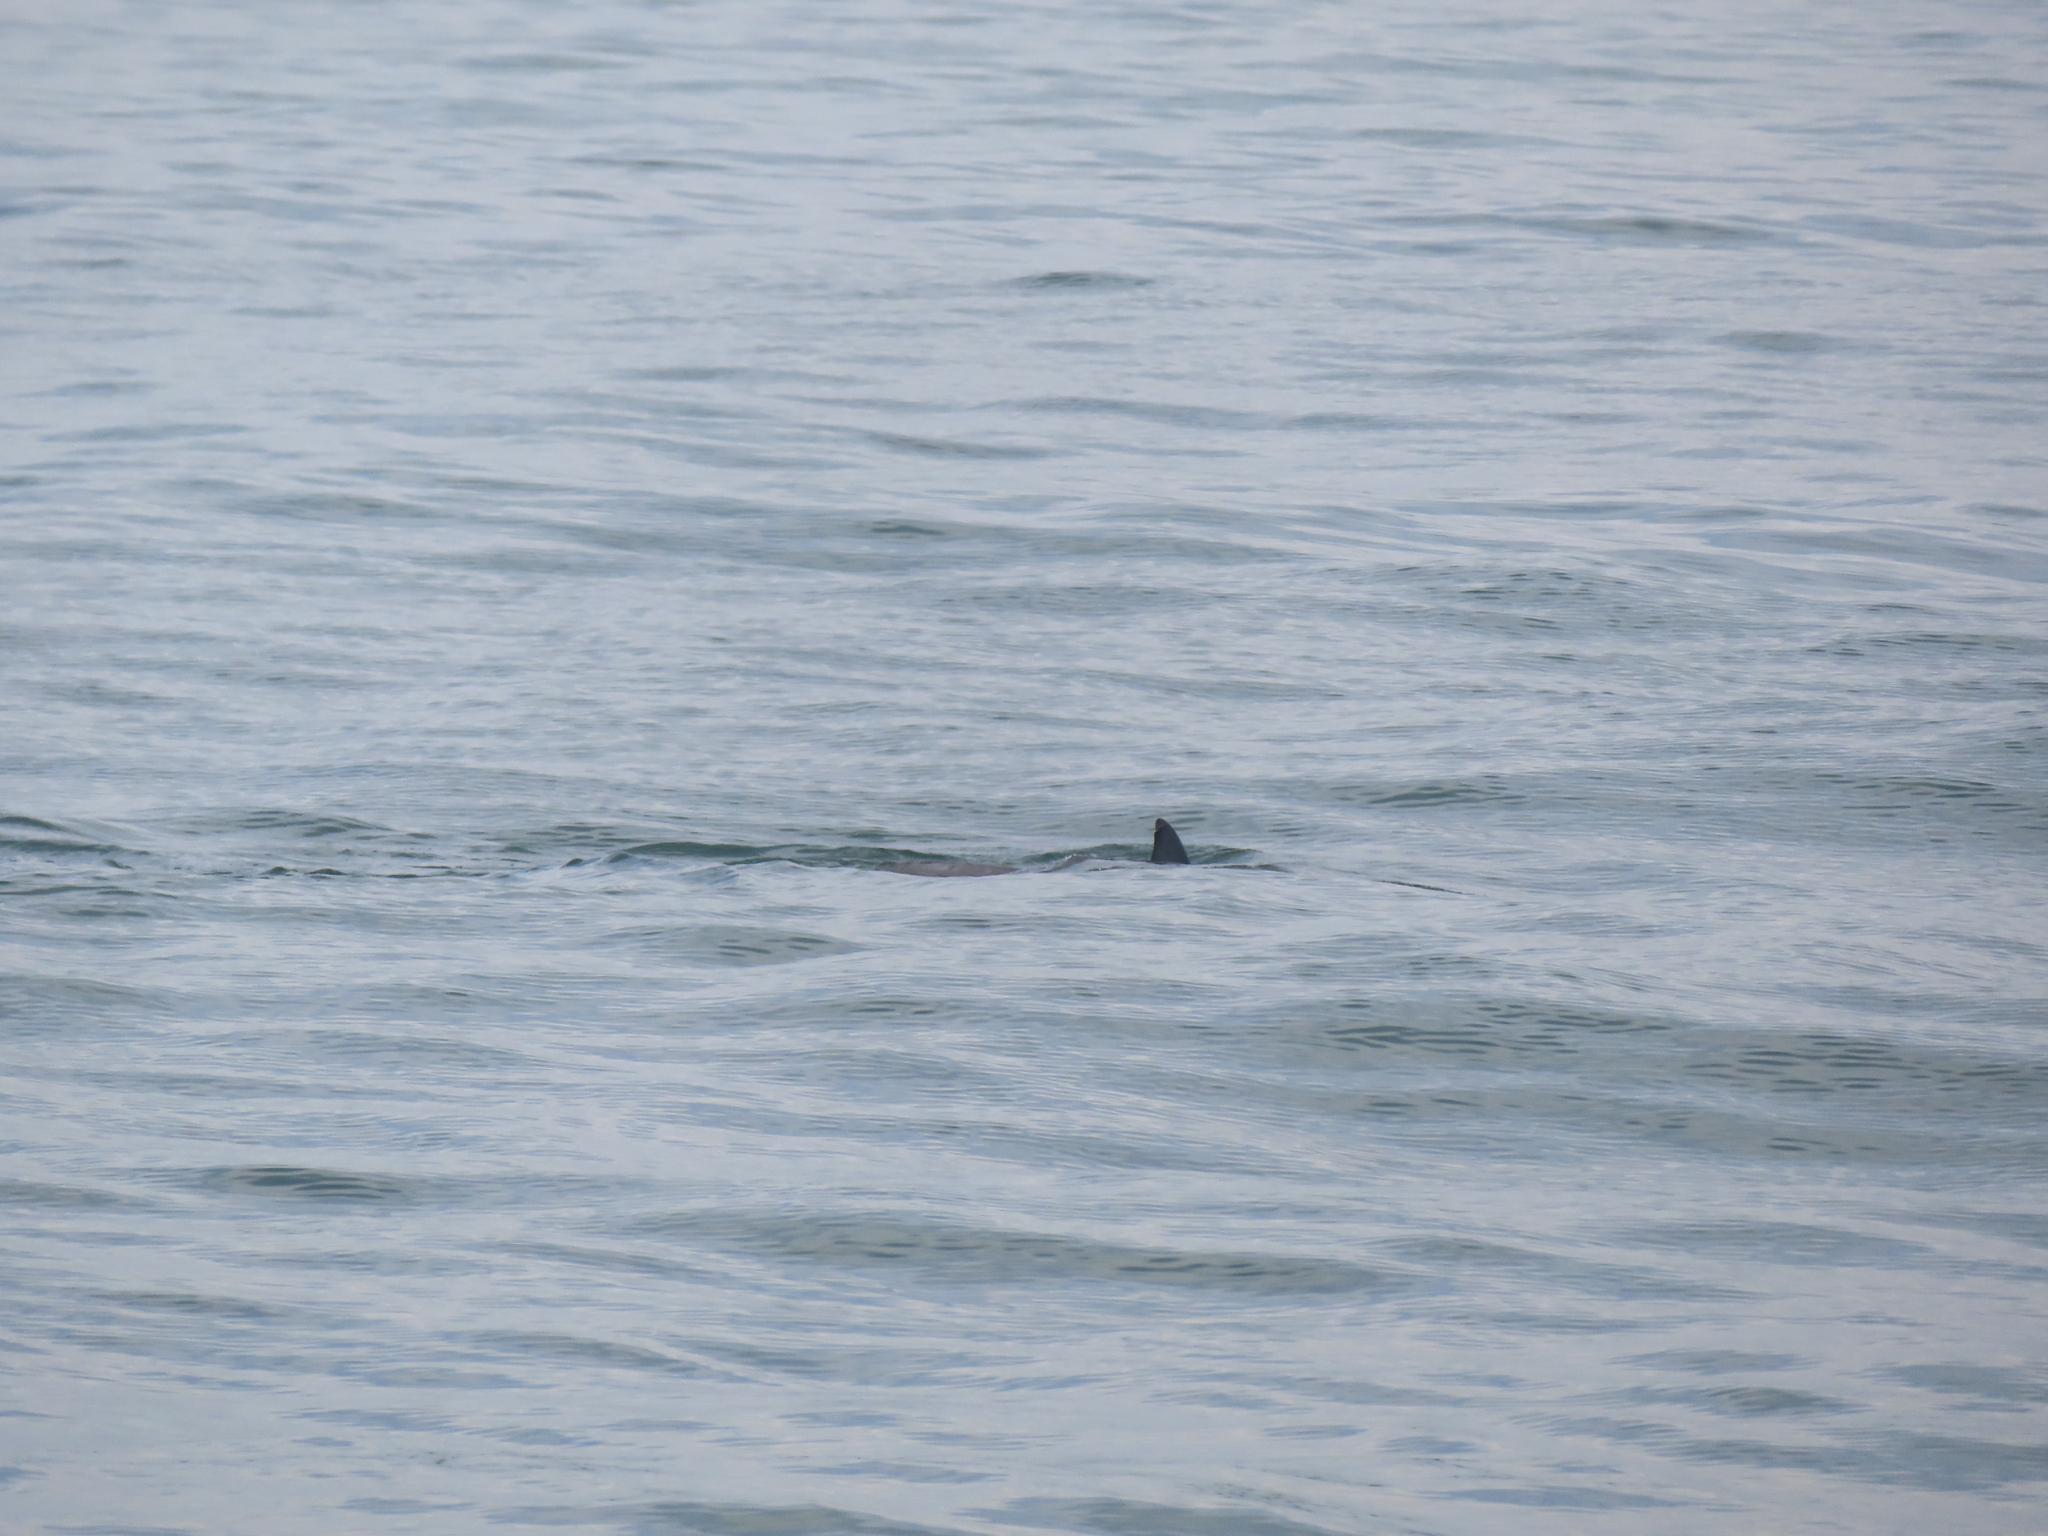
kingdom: Animalia
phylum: Chordata
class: Mammalia
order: Cetacea
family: Delphinidae
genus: Tursiops
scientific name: Tursiops truncatus
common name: Bottlenose dolphin
